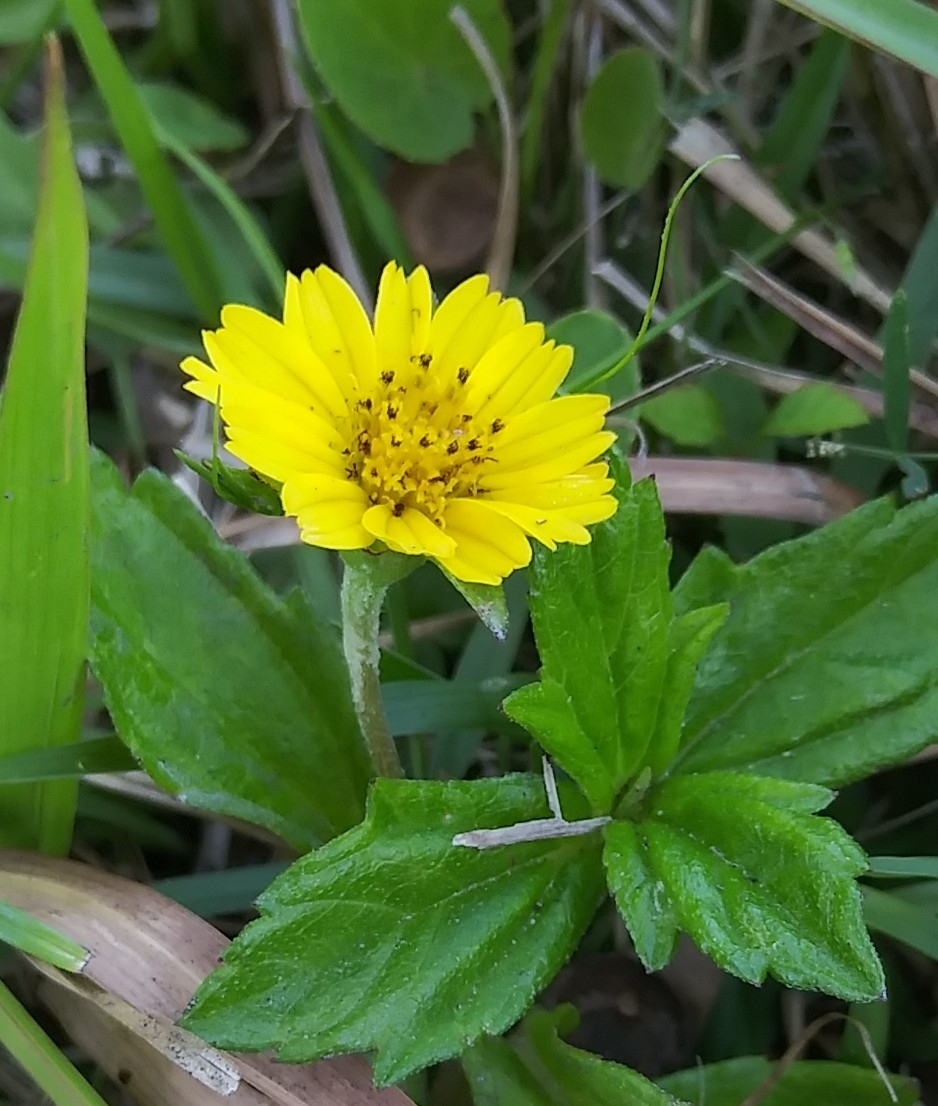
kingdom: Plantae
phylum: Tracheophyta
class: Magnoliopsida
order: Asterales
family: Asteraceae
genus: Sphagneticola
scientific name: Sphagneticola trilobata
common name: Bay biscayne creeping-oxeye
